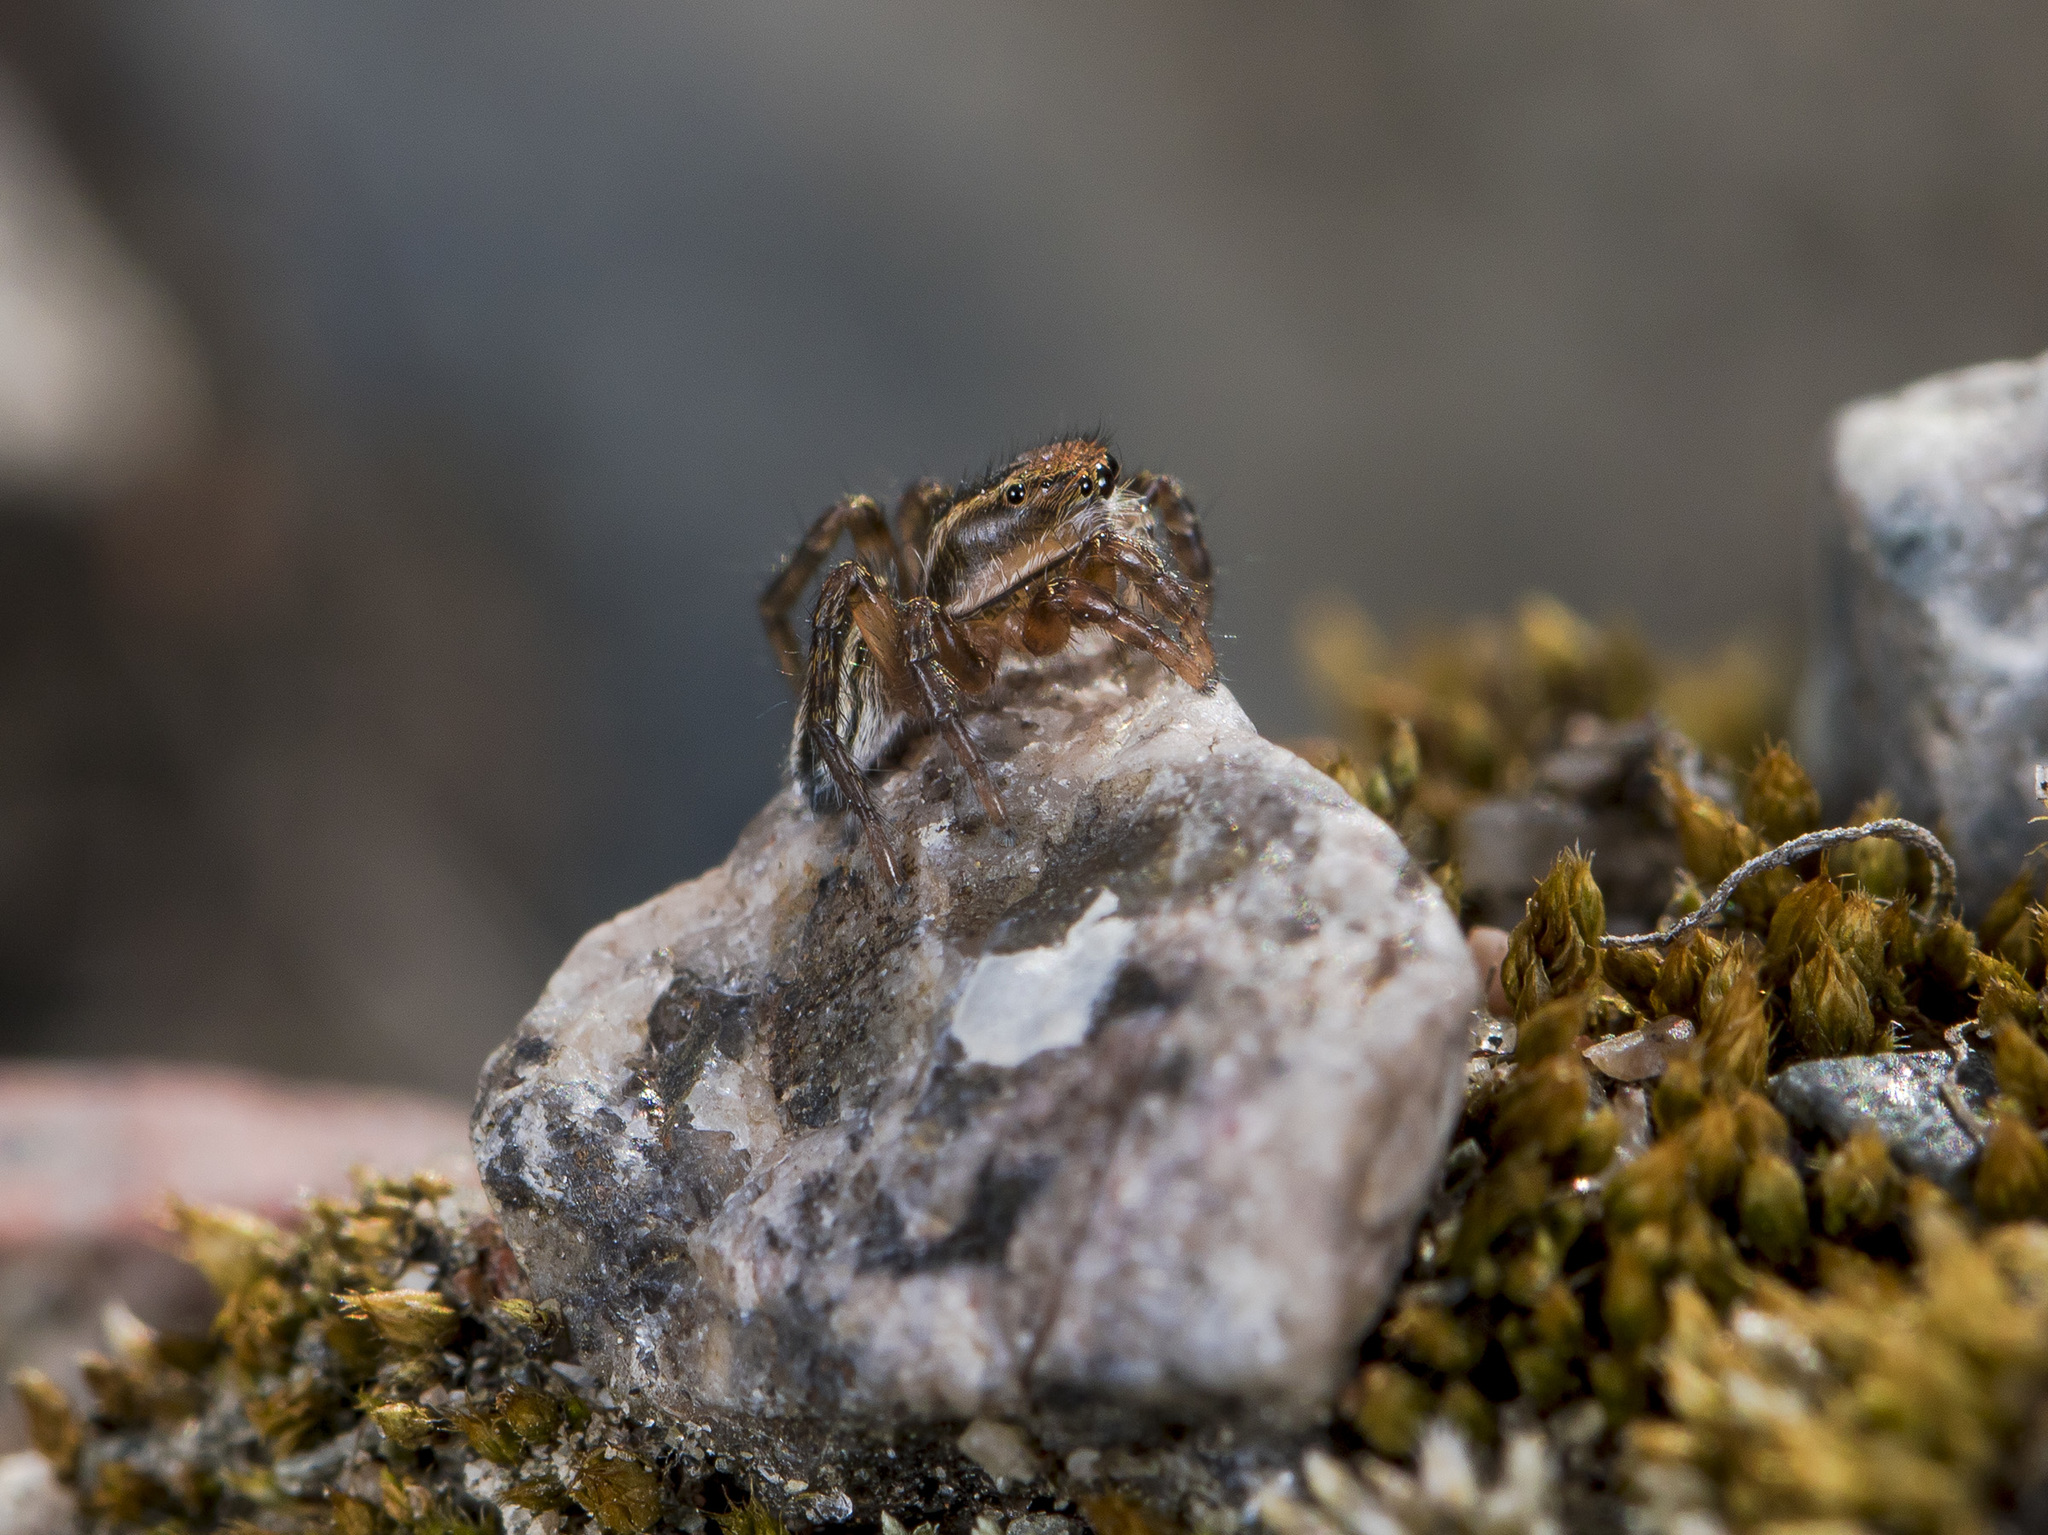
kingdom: Animalia
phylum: Arthropoda
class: Arachnida
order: Araneae
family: Salticidae
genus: Phlegra
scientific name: Phlegra fasciata
